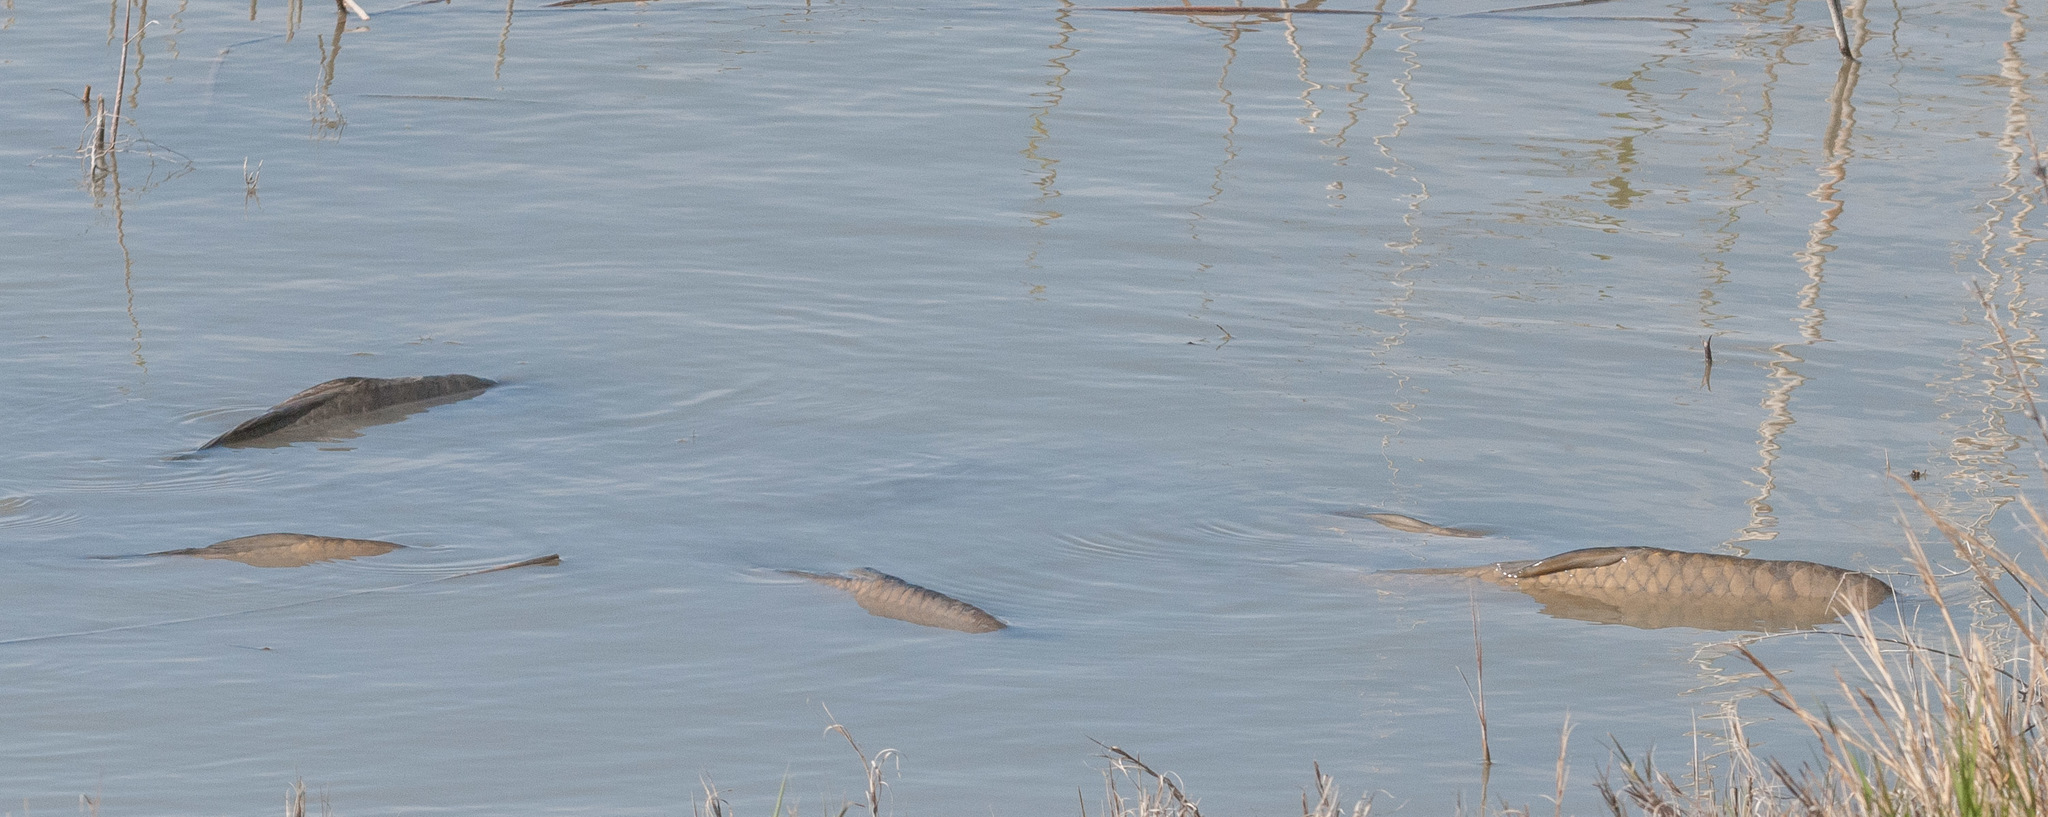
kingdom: Animalia
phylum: Chordata
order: Cypriniformes
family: Cyprinidae
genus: Cyprinus
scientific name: Cyprinus carpio
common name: Common carp
